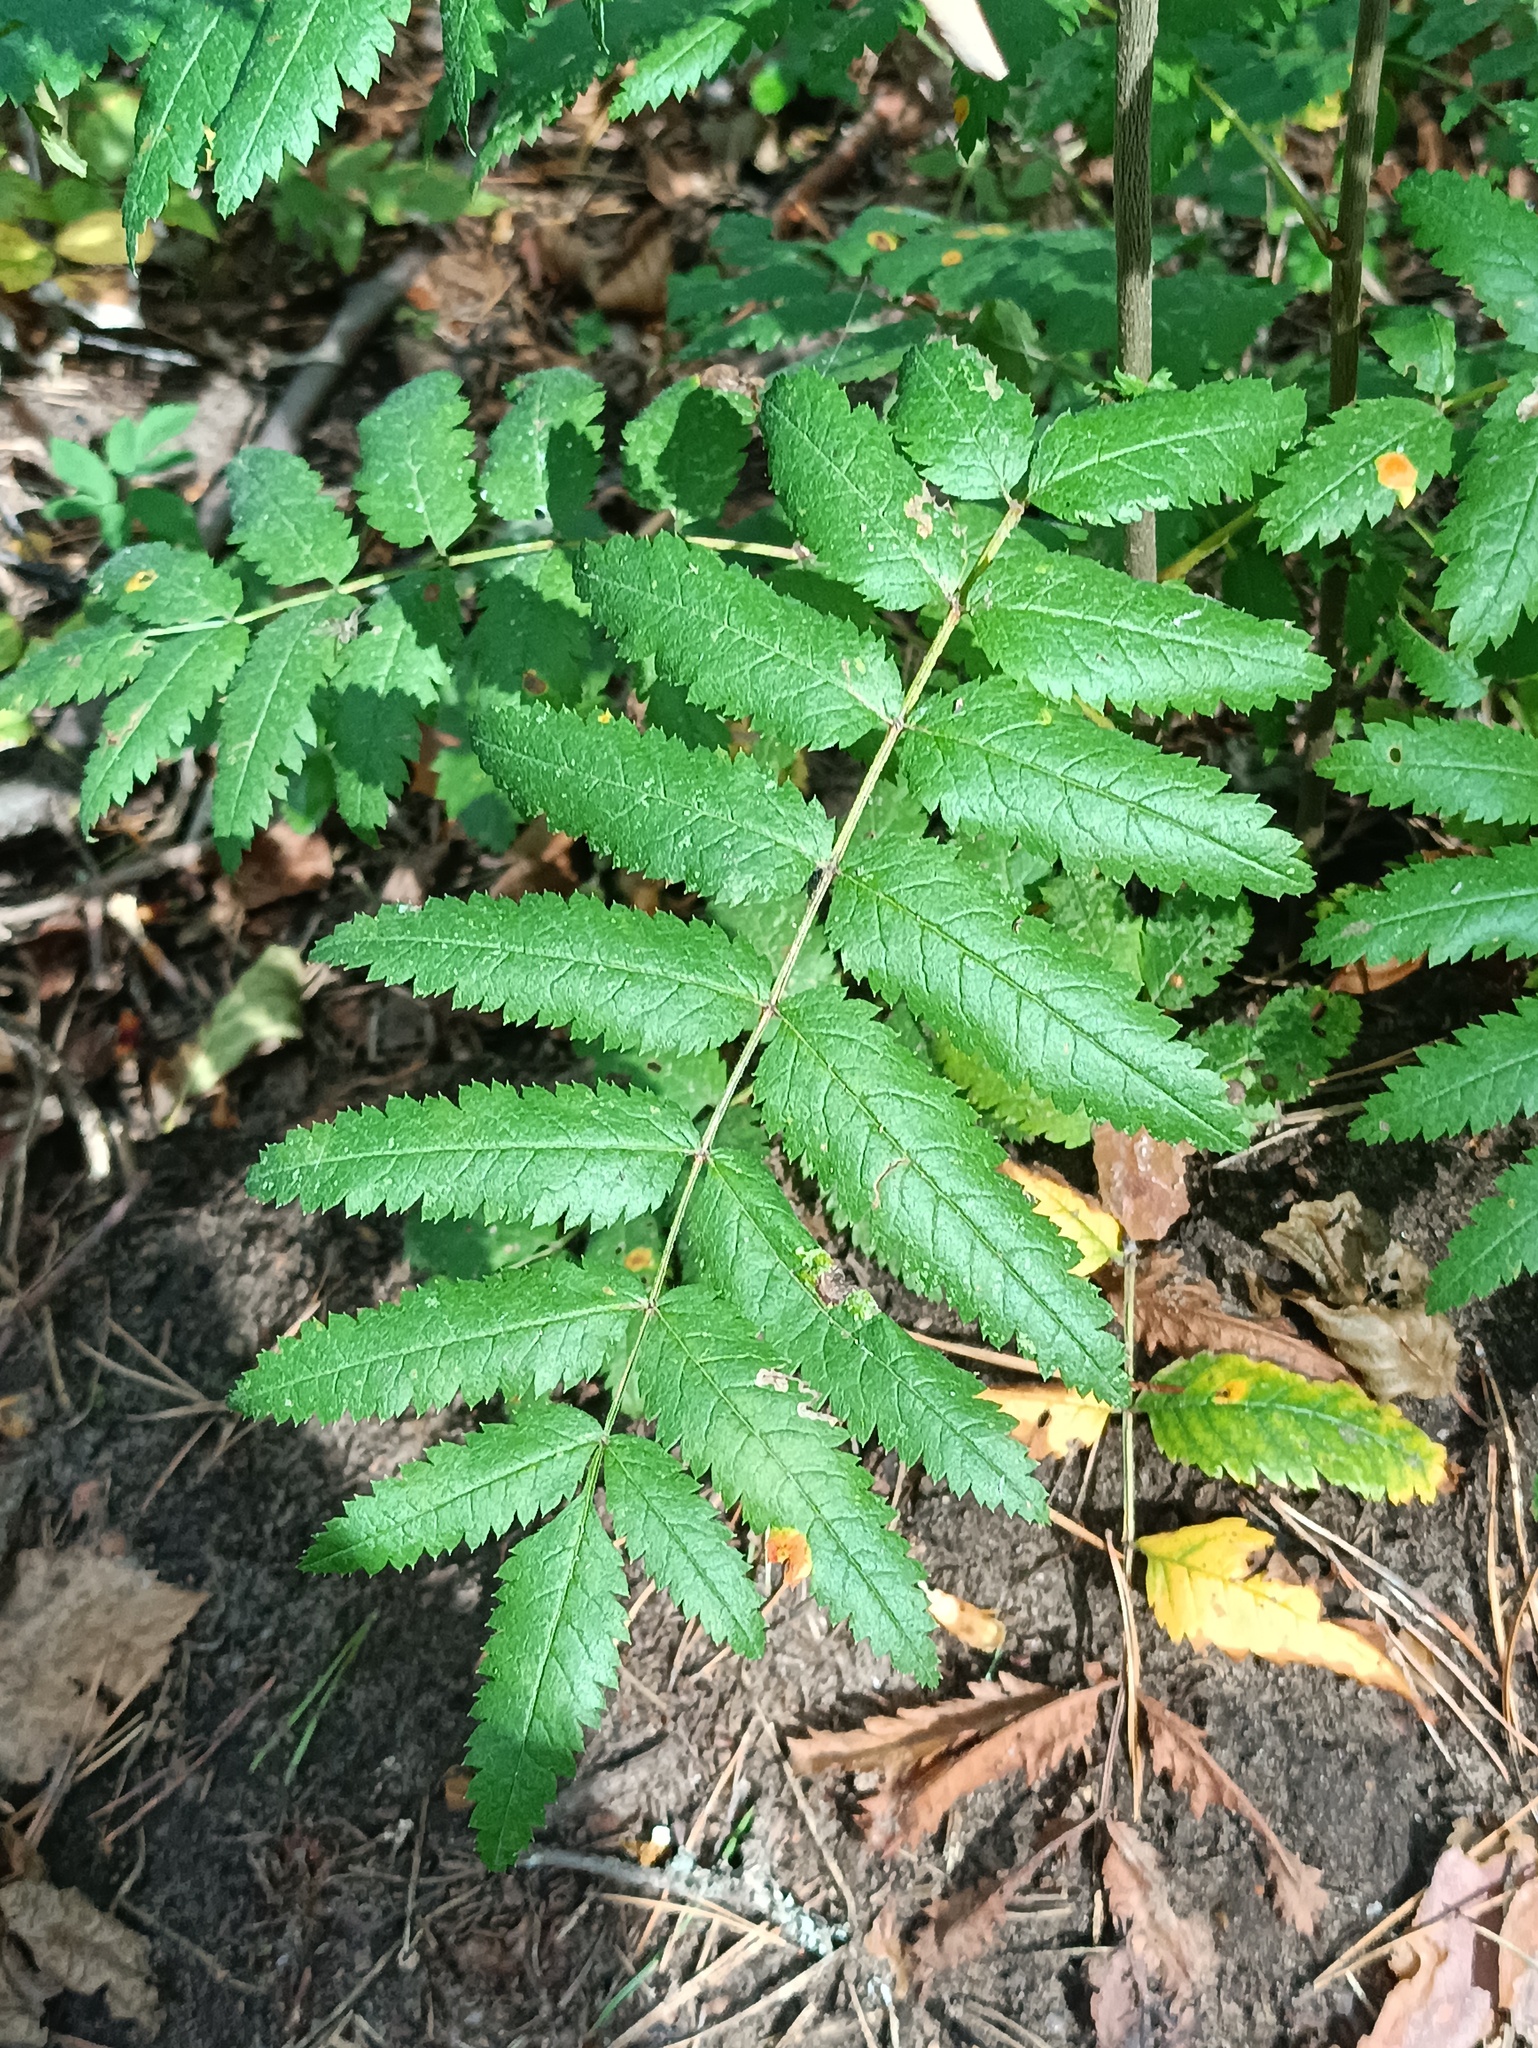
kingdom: Plantae
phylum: Tracheophyta
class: Magnoliopsida
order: Rosales
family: Rosaceae
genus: Sorbus
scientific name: Sorbus aucuparia
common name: Rowan
